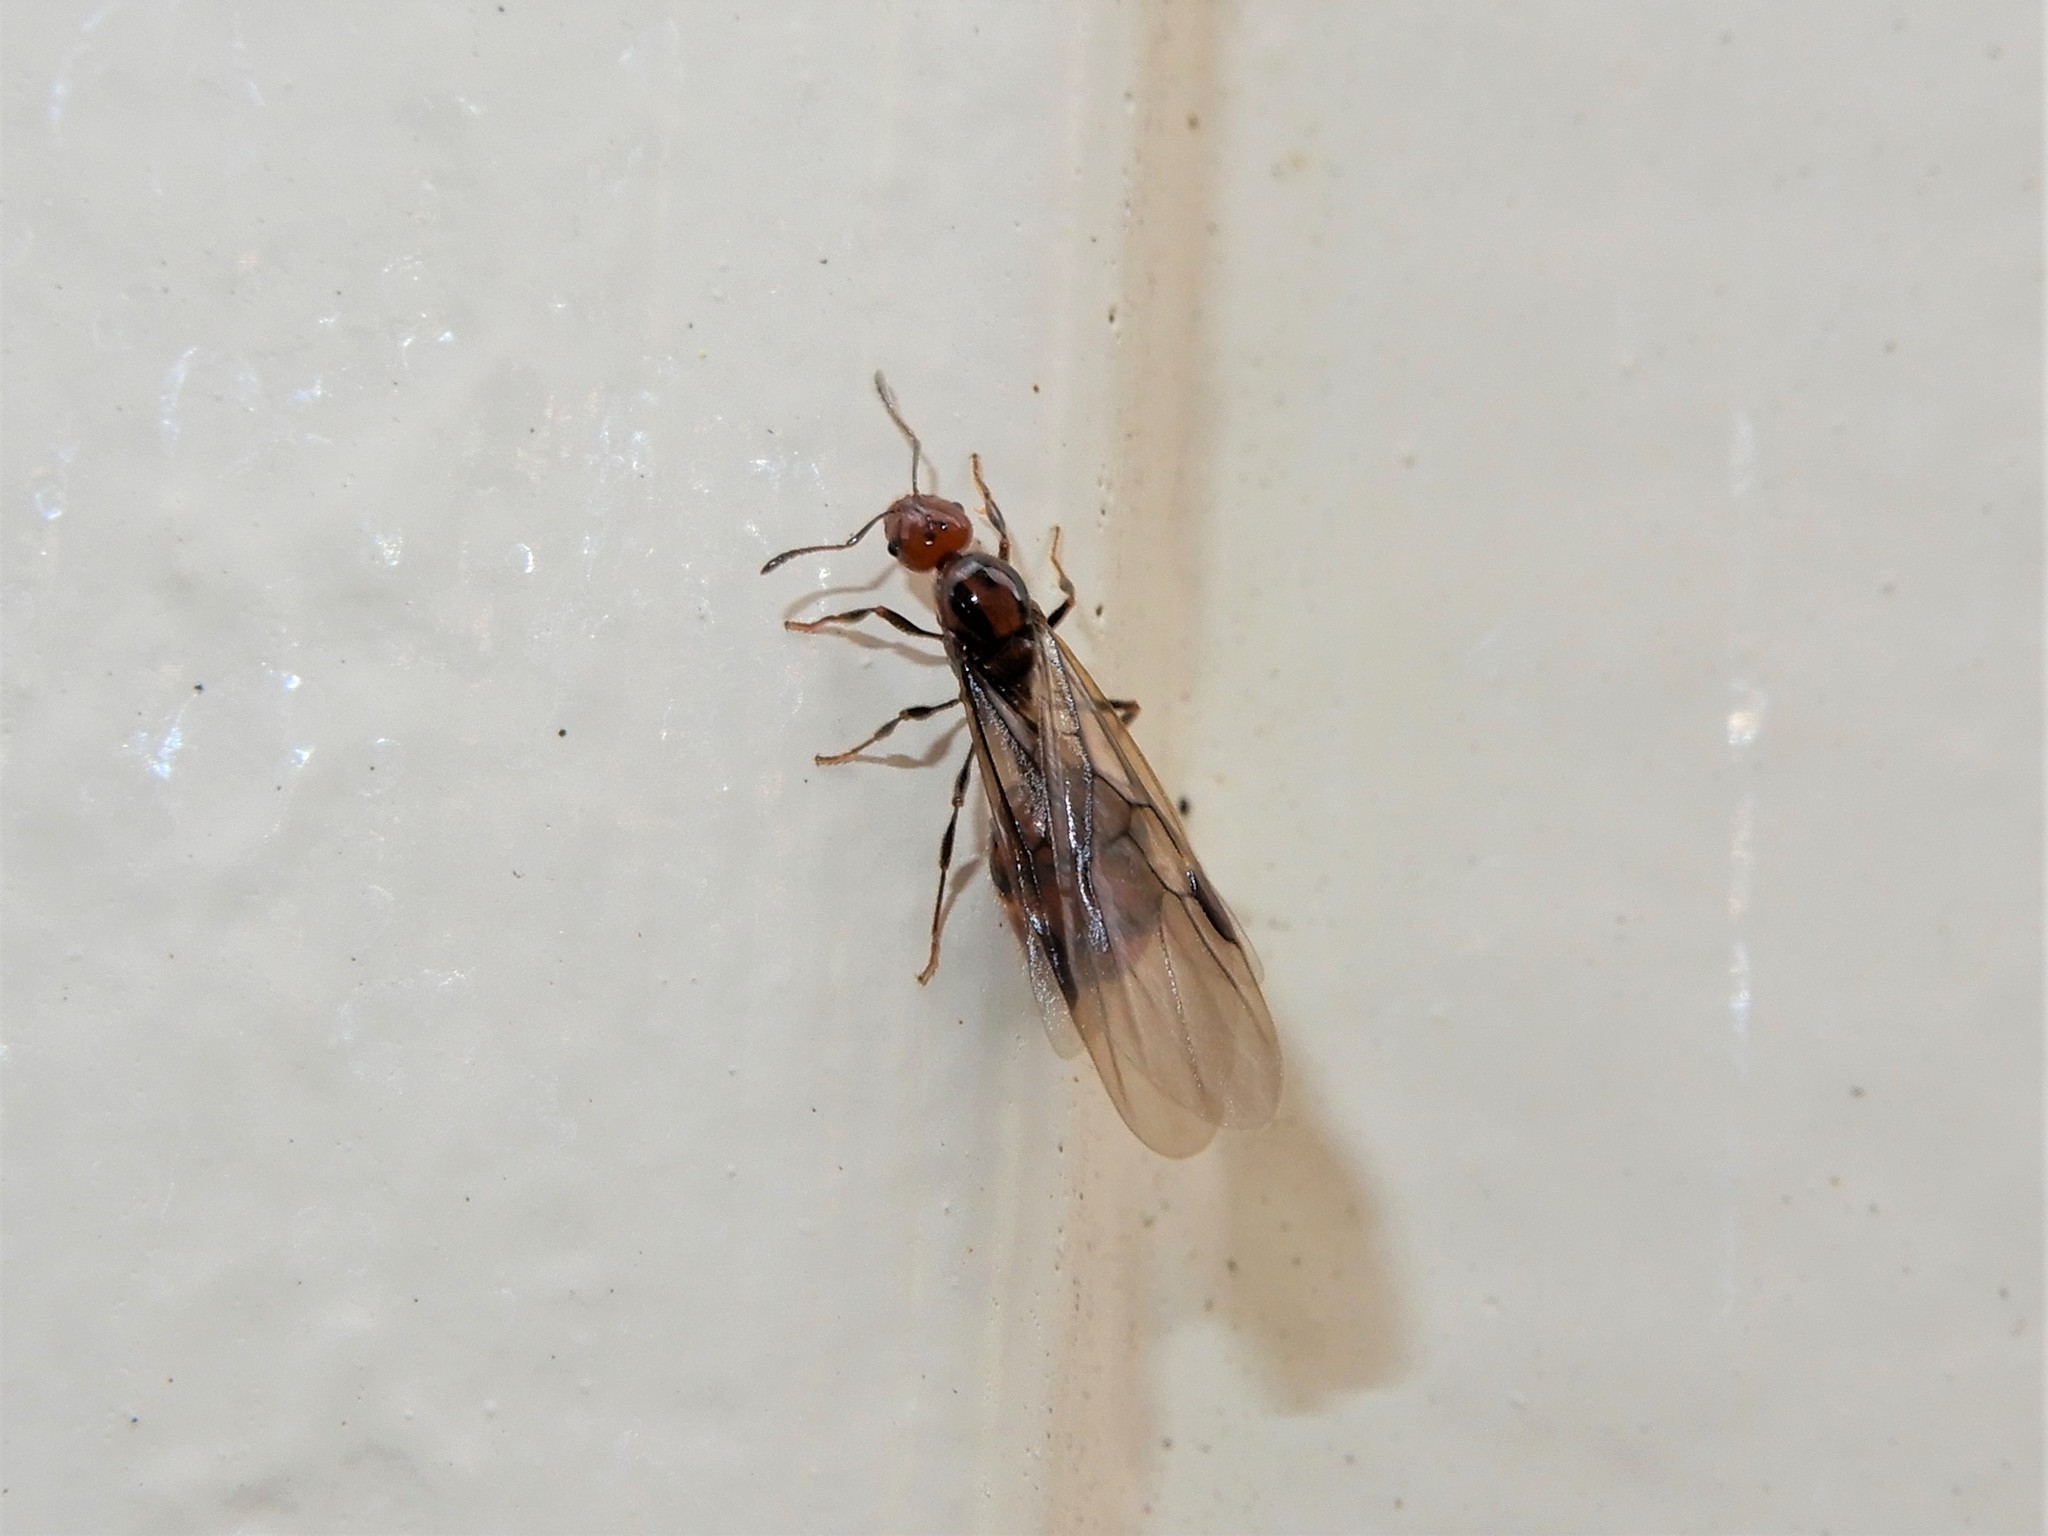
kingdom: Animalia
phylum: Arthropoda
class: Insecta
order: Hymenoptera
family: Formicidae
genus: Monomorium
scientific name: Monomorium antarcticum
